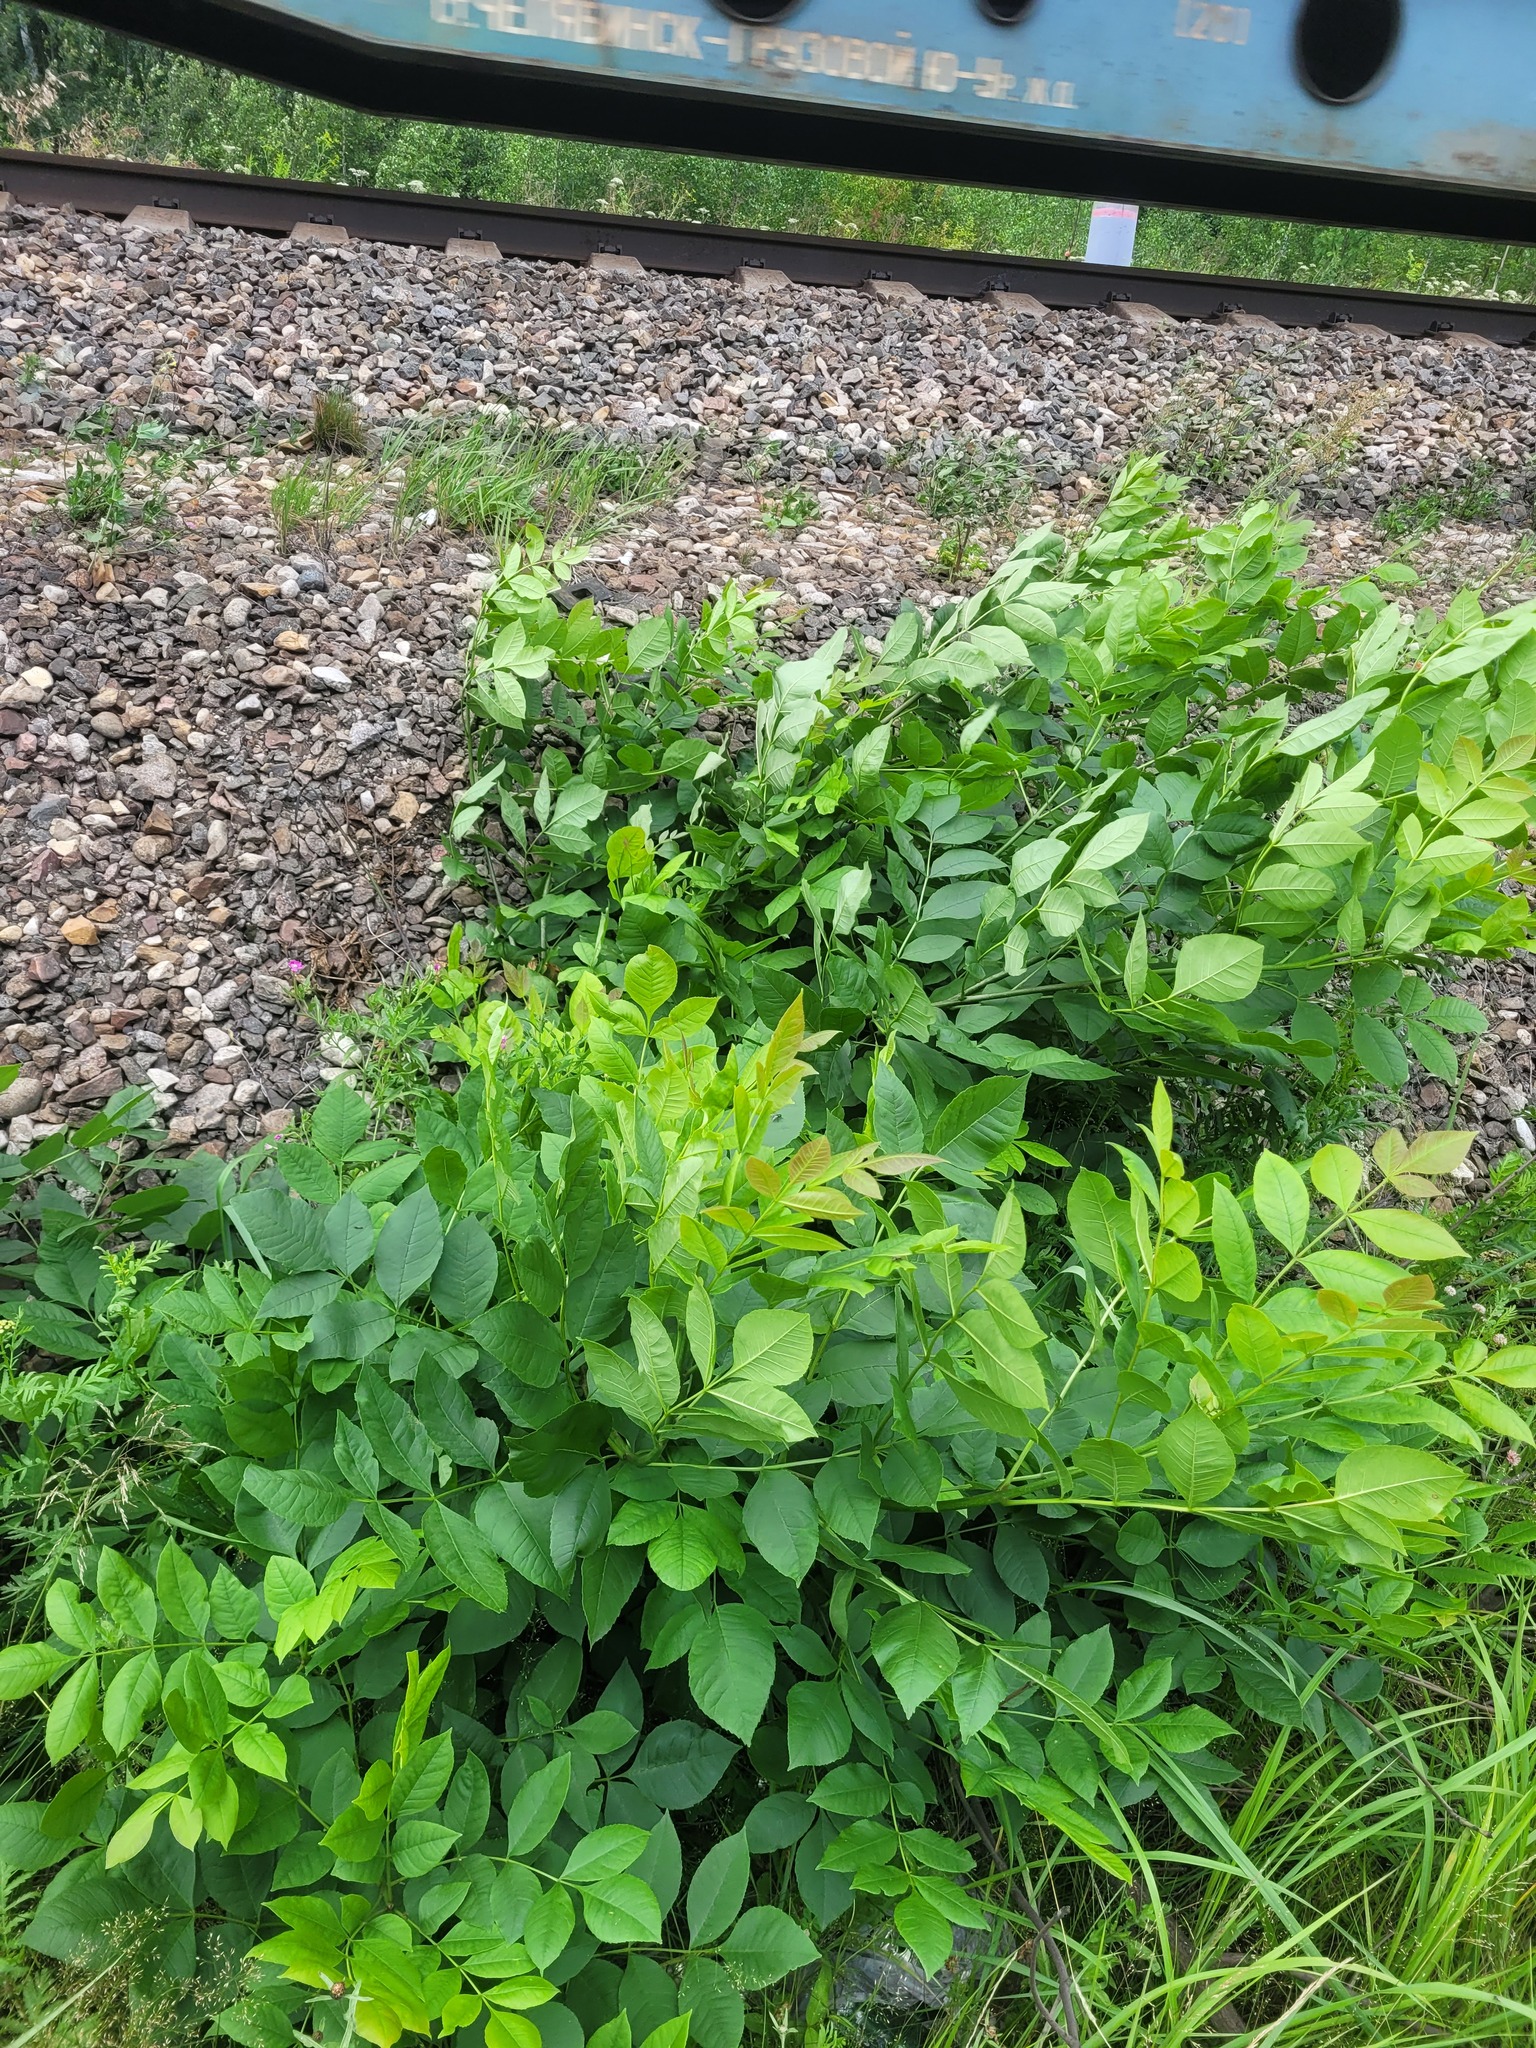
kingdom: Plantae
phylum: Tracheophyta
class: Magnoliopsida
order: Lamiales
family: Oleaceae
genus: Fraxinus
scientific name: Fraxinus pennsylvanica
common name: Green ash
